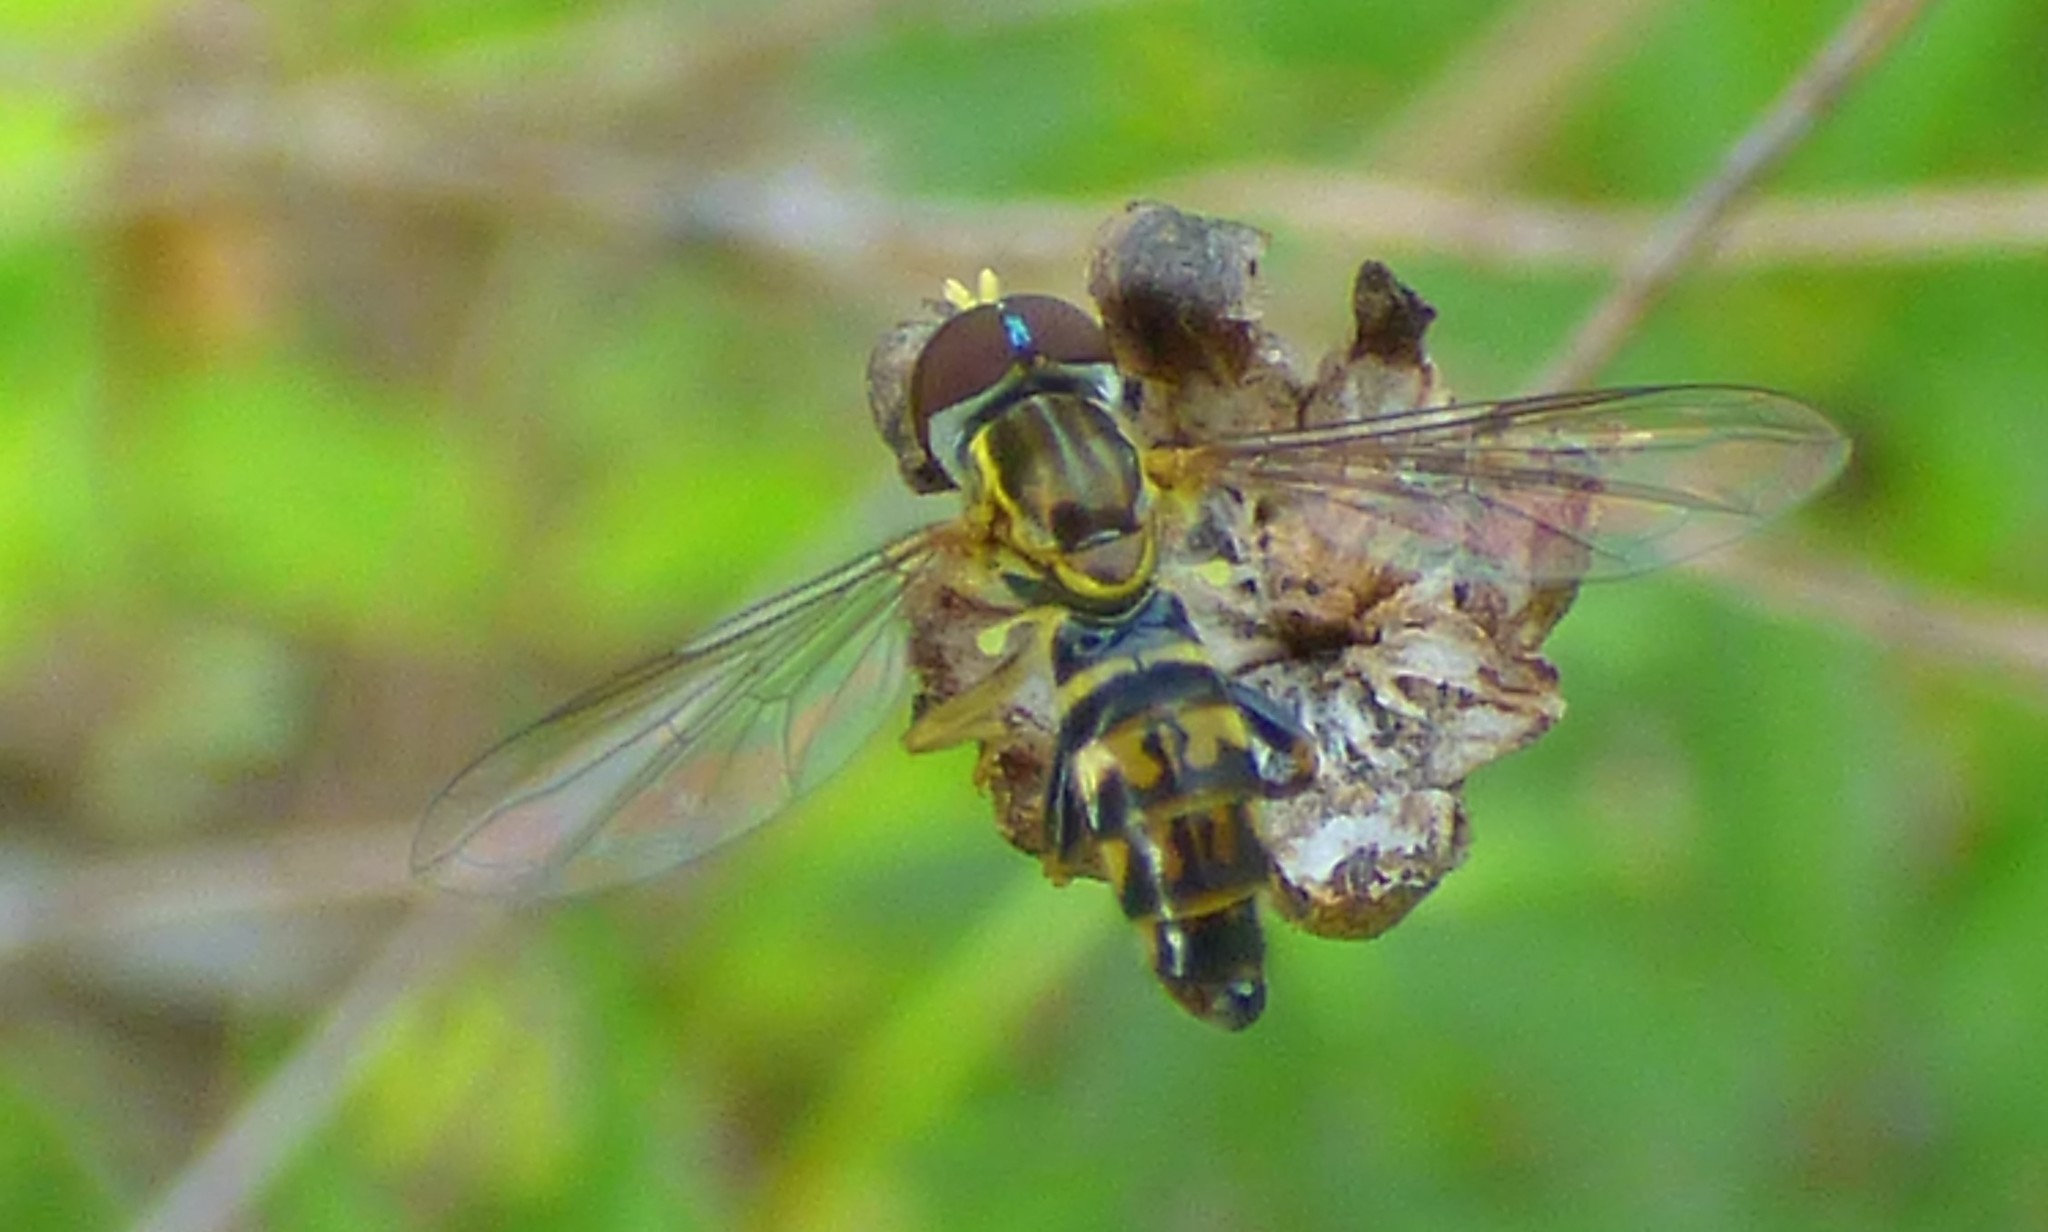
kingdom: Animalia
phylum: Arthropoda
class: Insecta
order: Diptera
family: Syrphidae
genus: Toxomerus
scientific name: Toxomerus geminatus
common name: Eastern calligrapher
